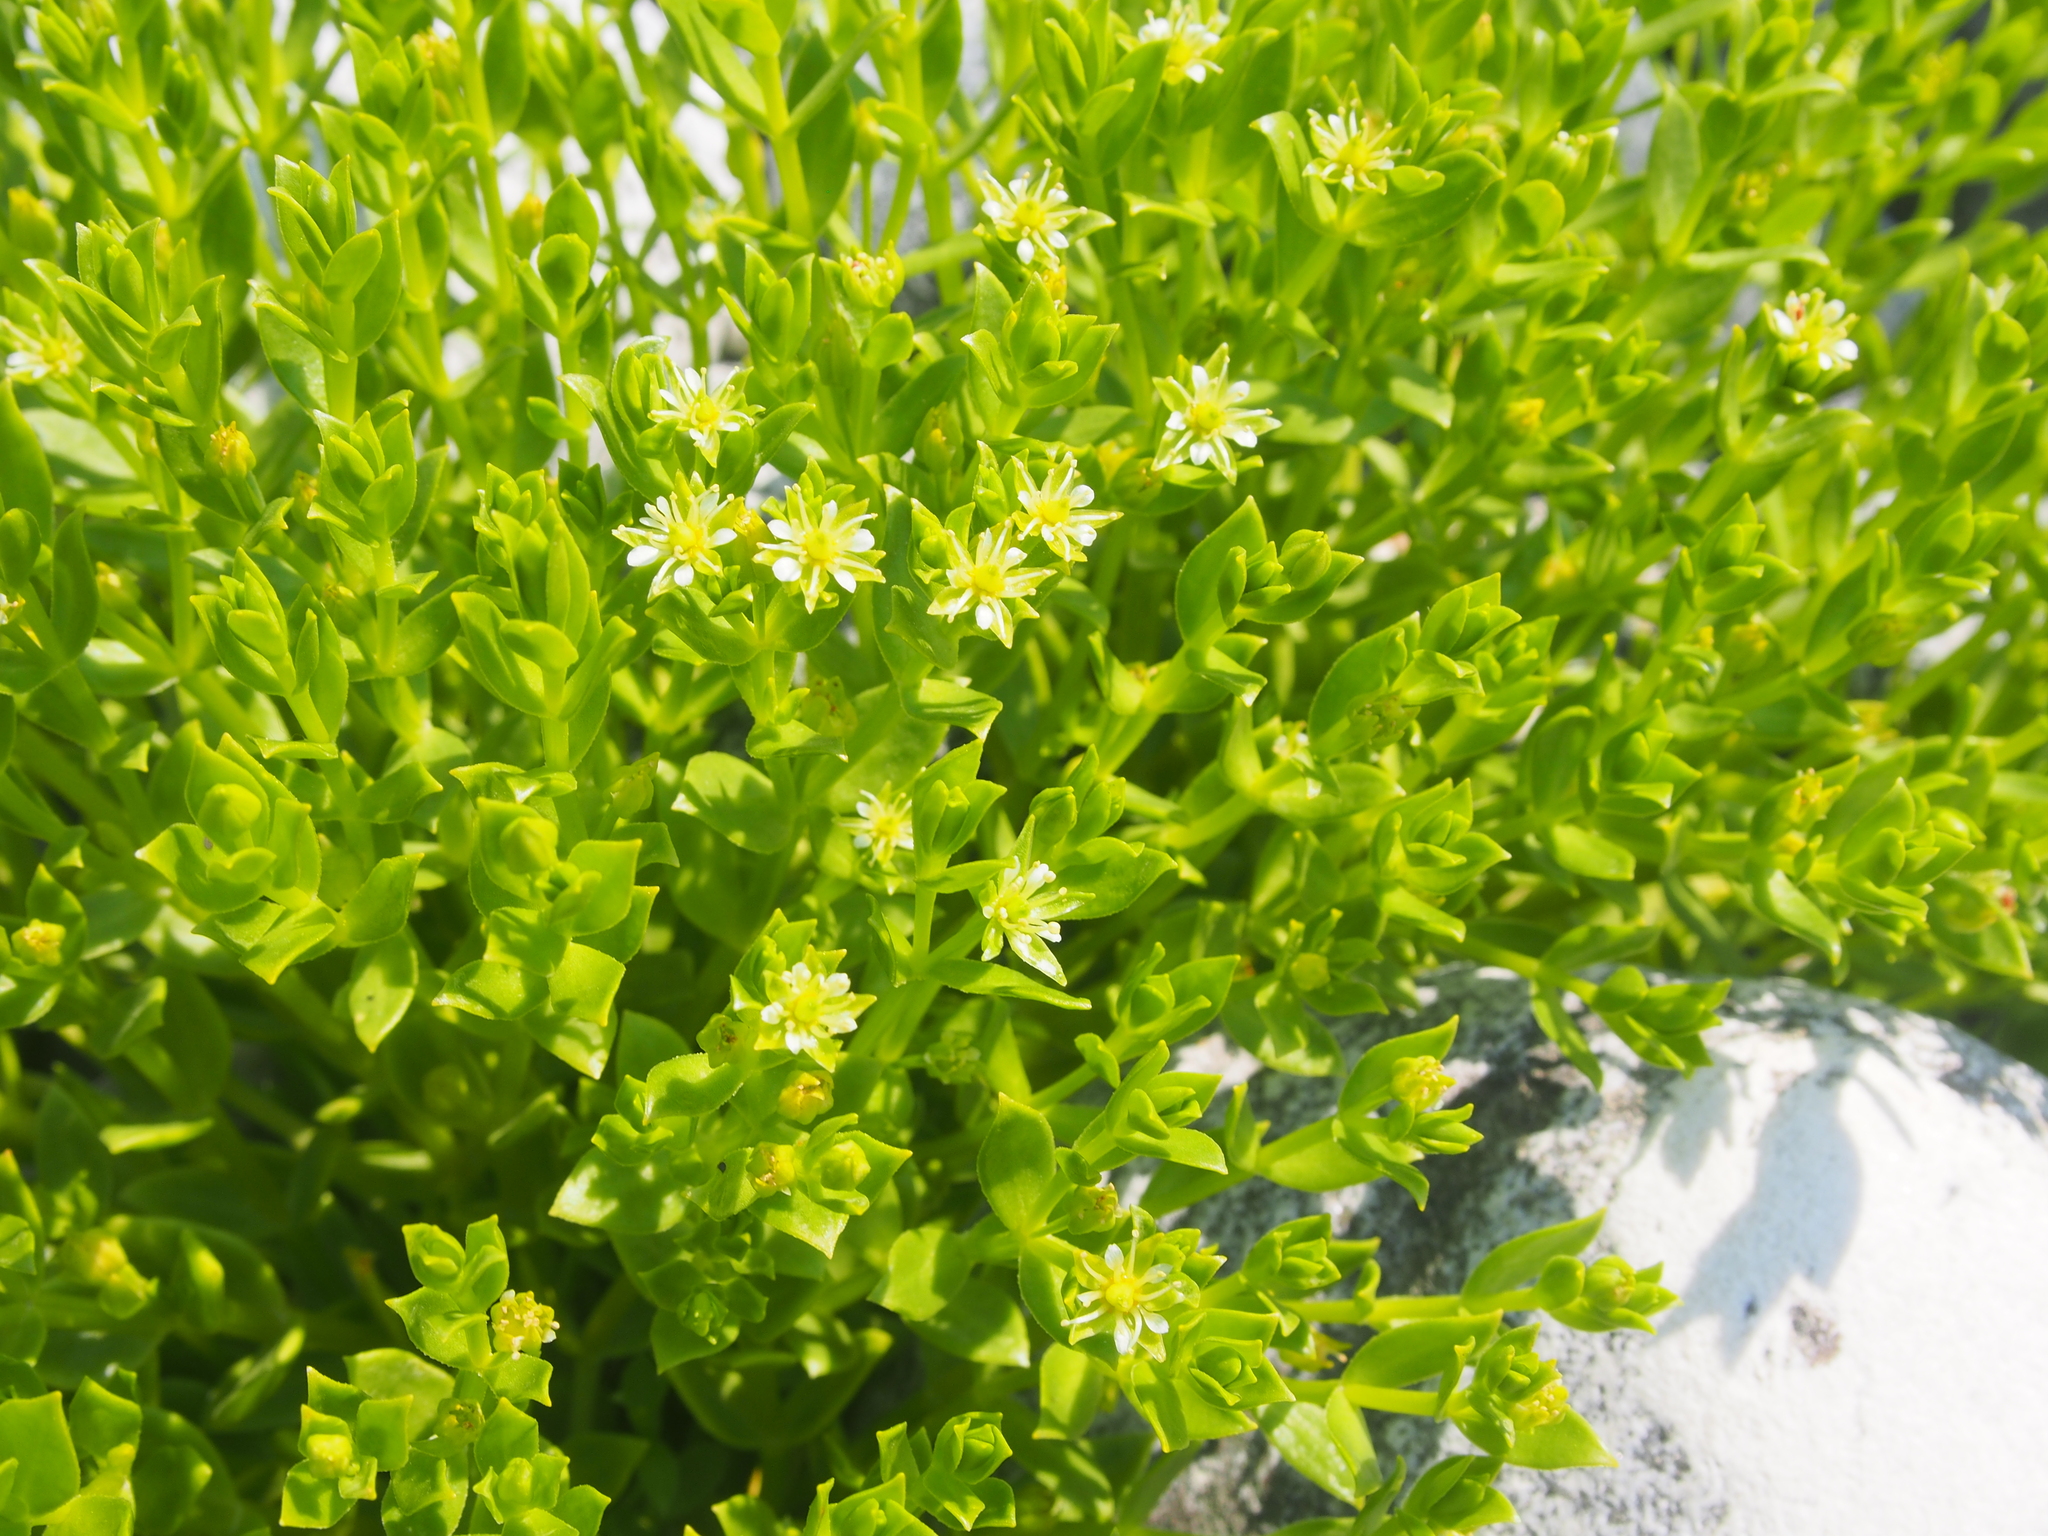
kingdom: Plantae
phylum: Tracheophyta
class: Magnoliopsida
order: Caryophyllales
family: Caryophyllaceae
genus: Honckenya
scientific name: Honckenya peploides
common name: Sea sandwort
